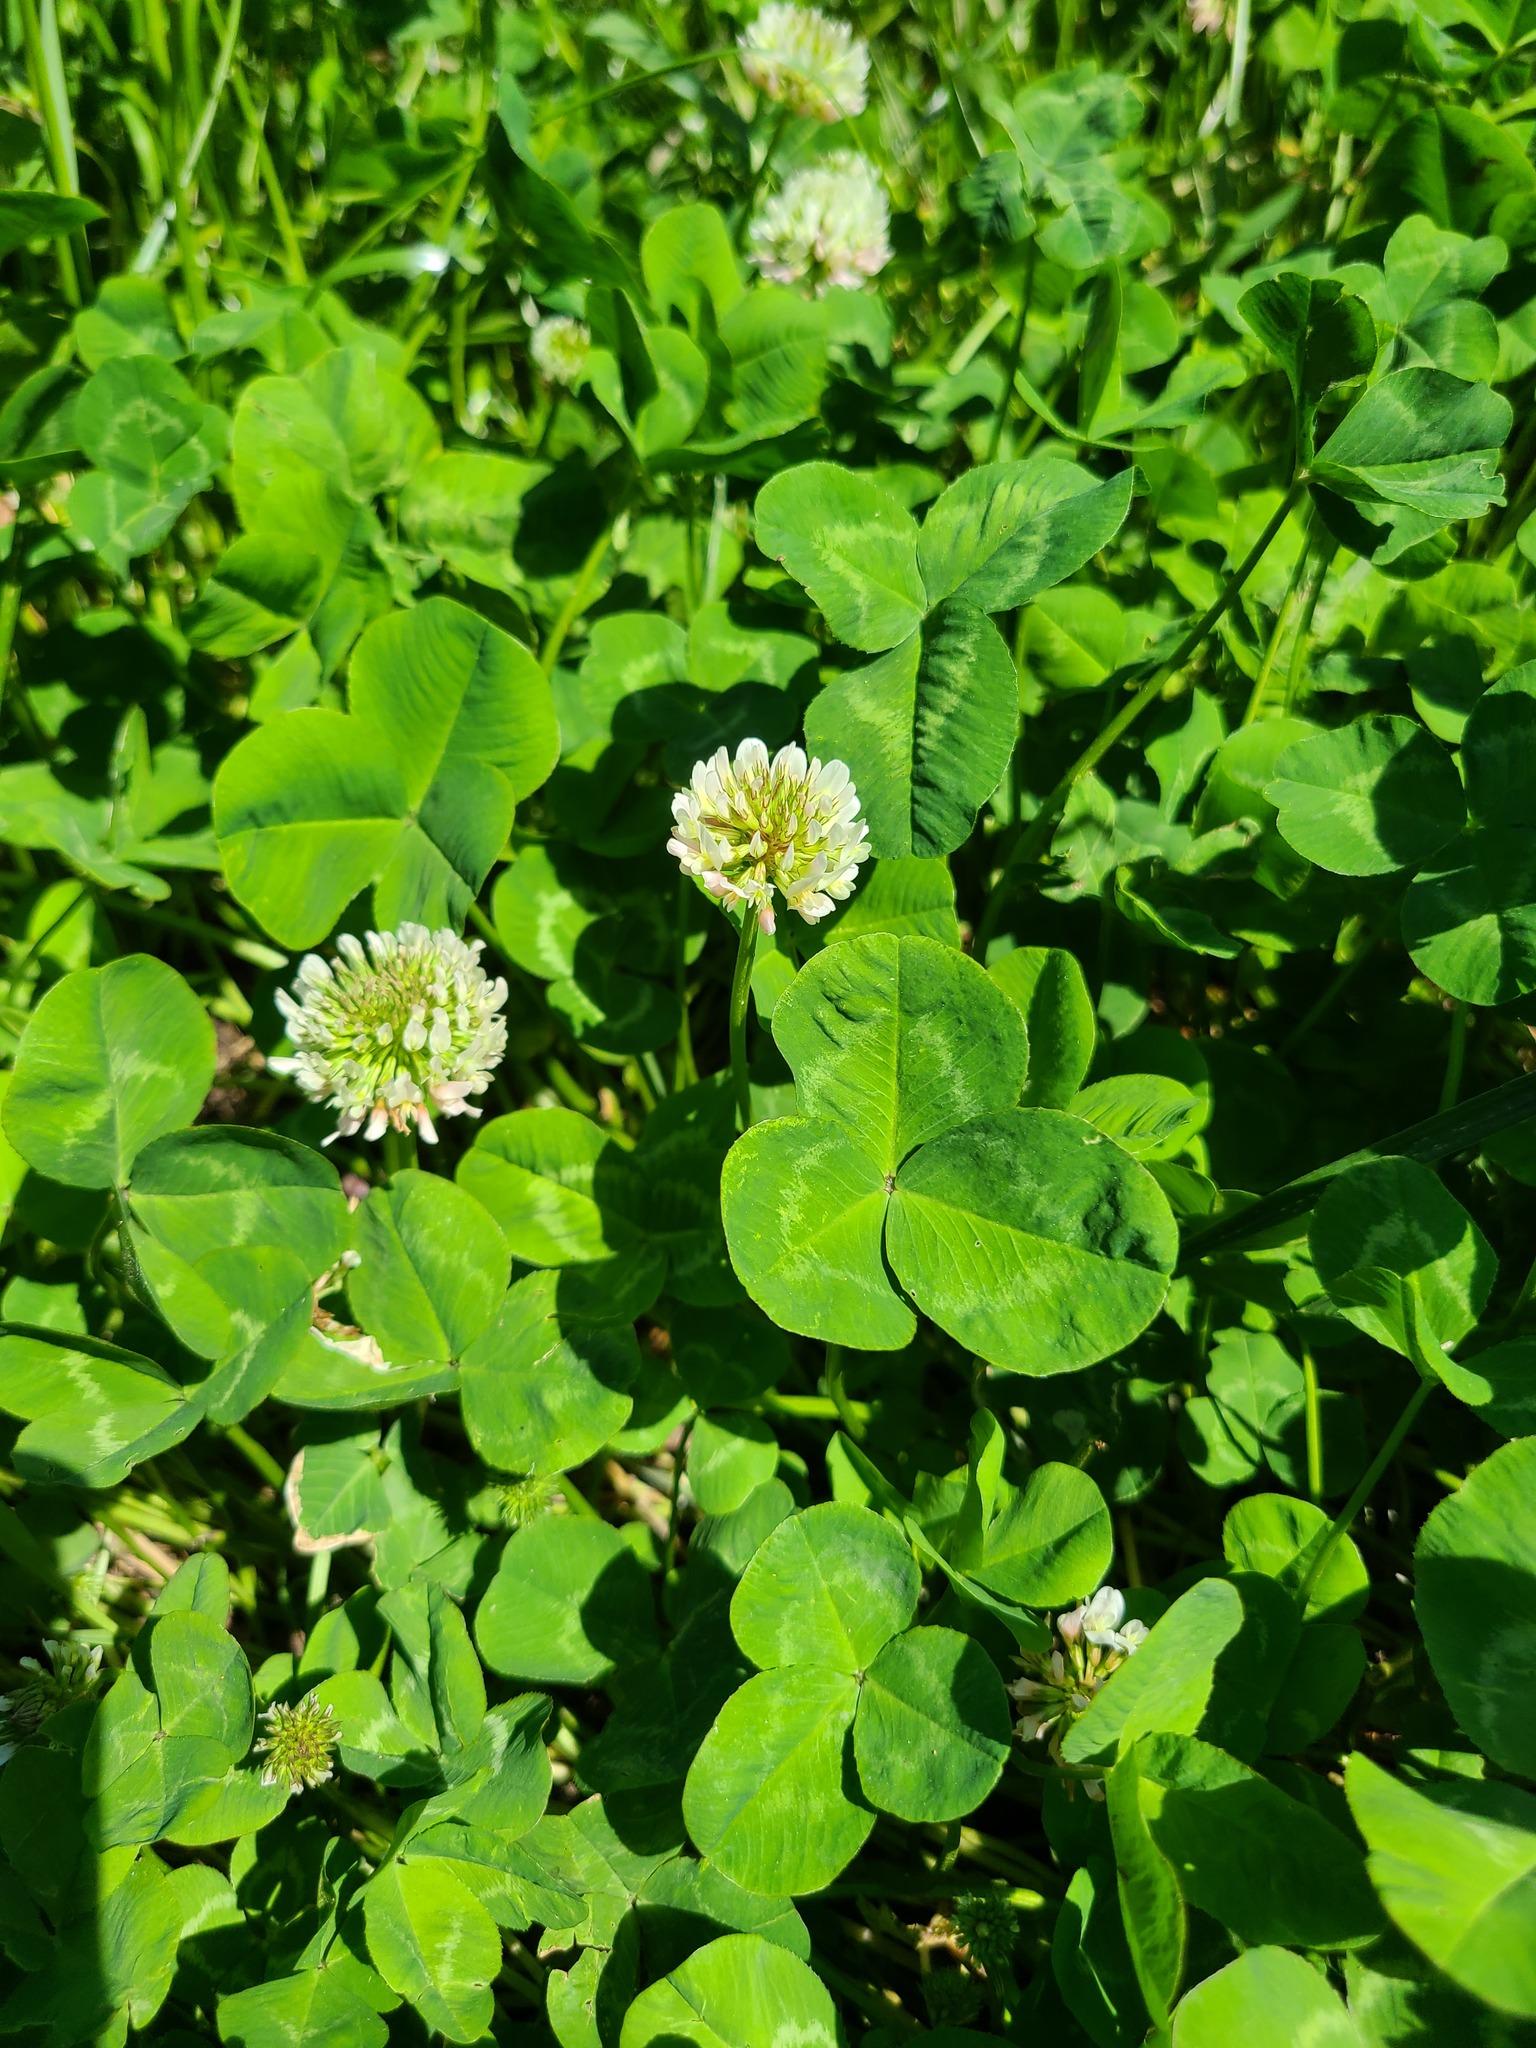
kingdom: Plantae
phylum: Tracheophyta
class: Magnoliopsida
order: Fabales
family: Fabaceae
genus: Trifolium
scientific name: Trifolium repens
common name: White clover
